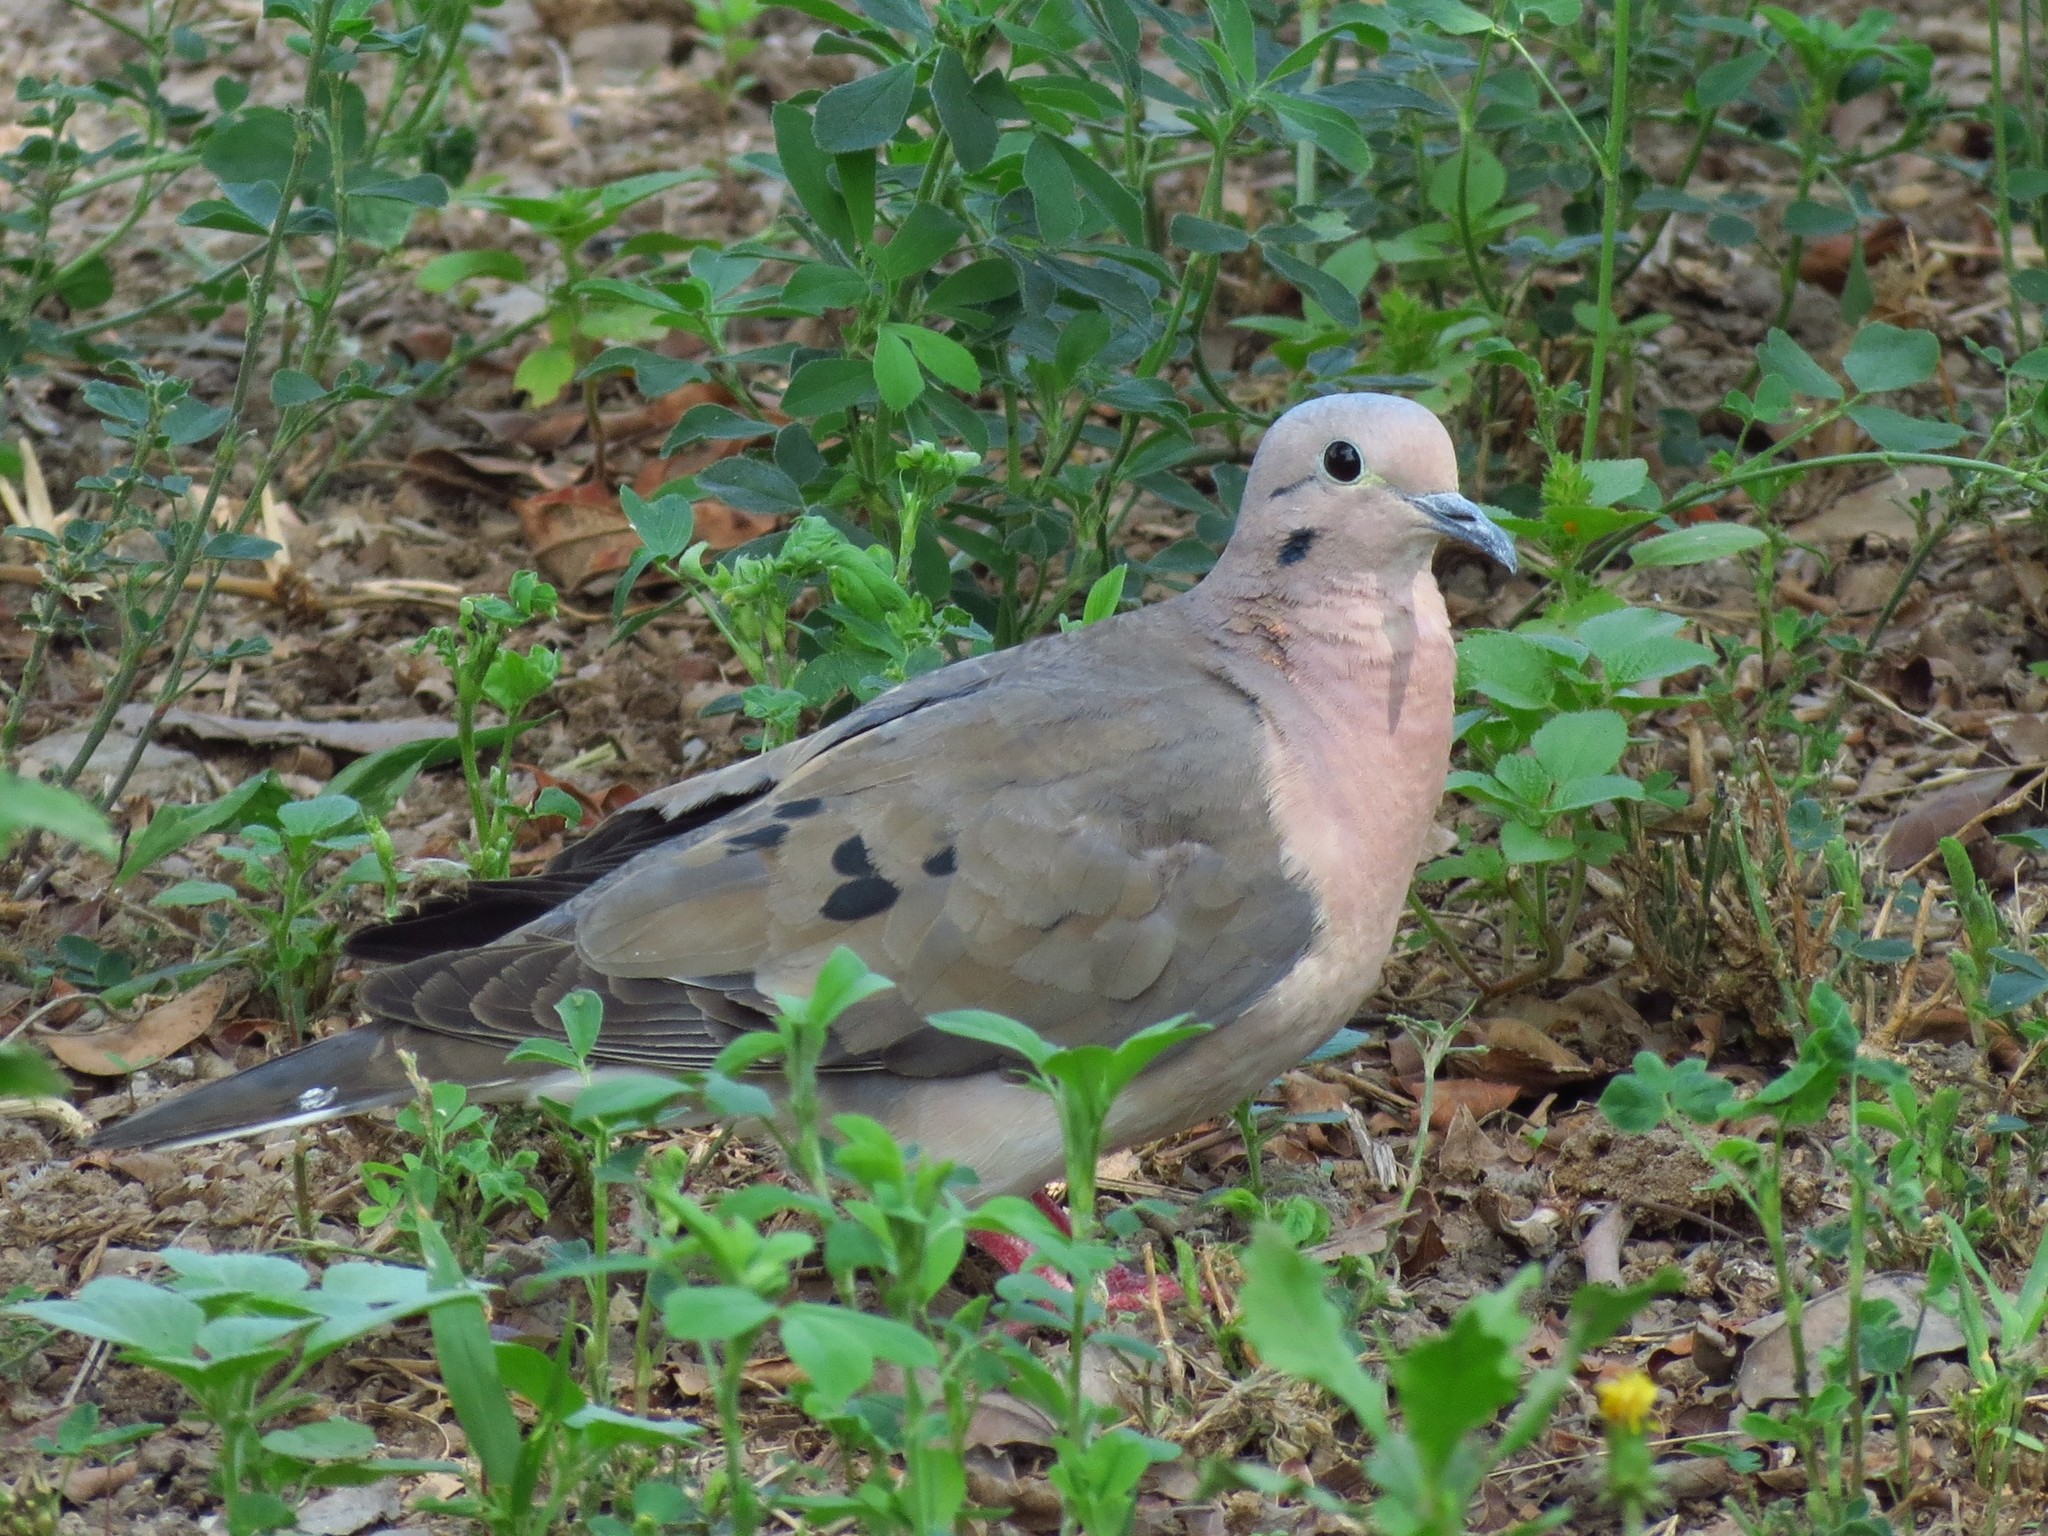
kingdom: Animalia
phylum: Chordata
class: Aves
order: Columbiformes
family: Columbidae
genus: Zenaida
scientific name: Zenaida auriculata
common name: Eared dove
